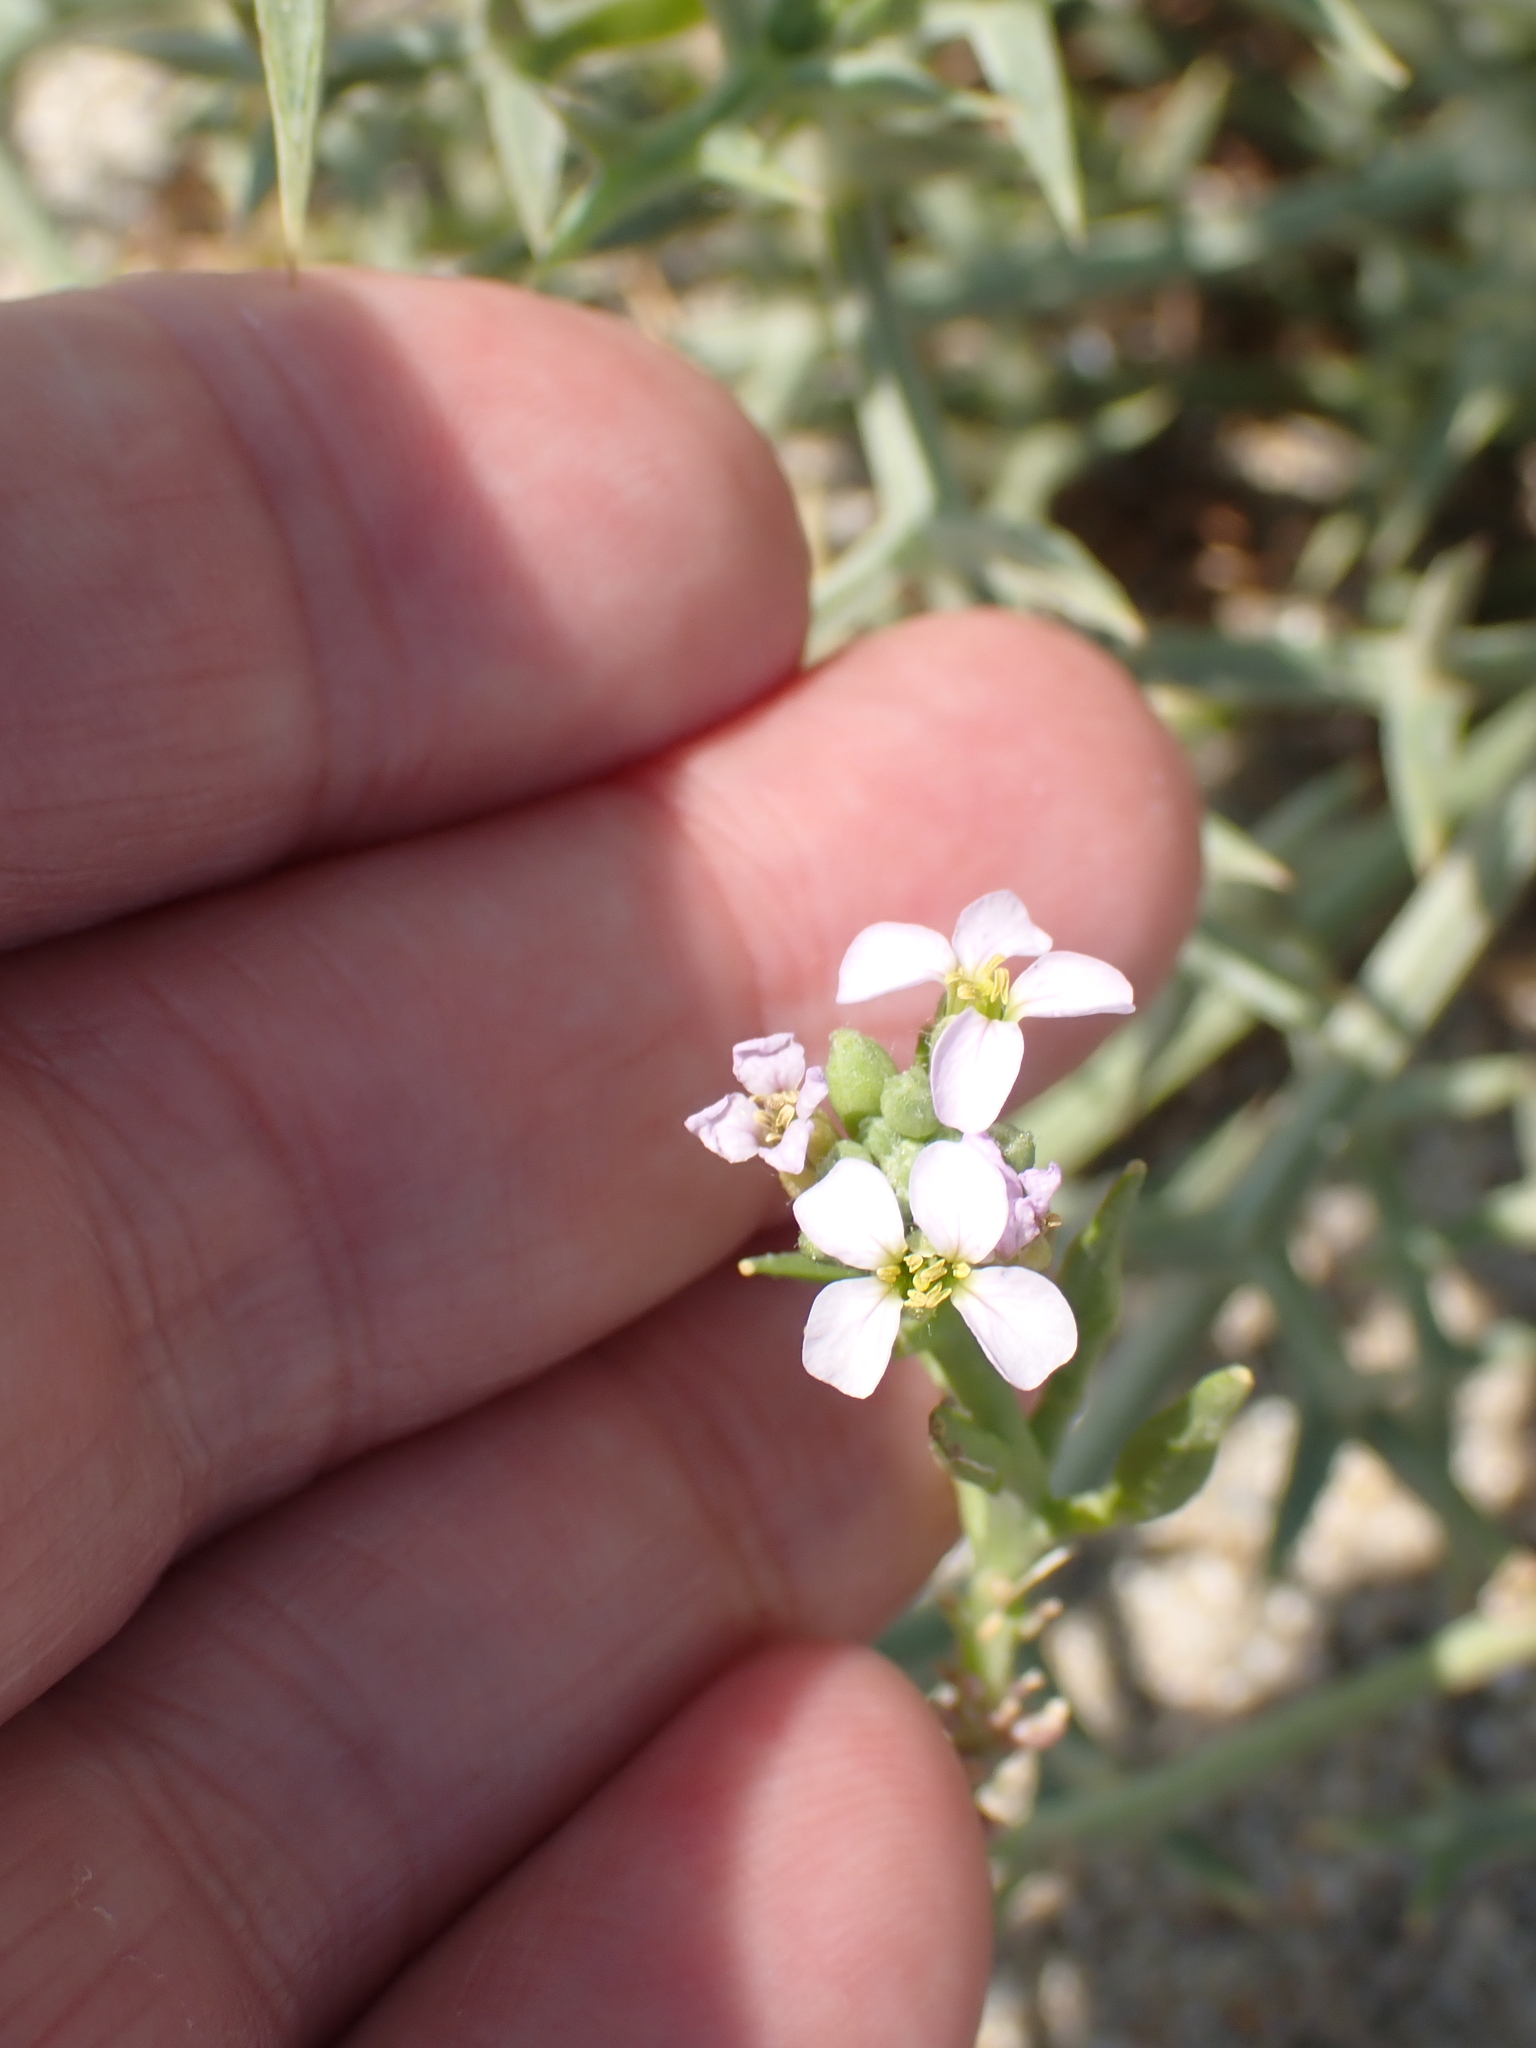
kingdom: Plantae
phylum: Tracheophyta
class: Magnoliopsida
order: Brassicales
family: Brassicaceae
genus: Cakile
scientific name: Cakile maritima
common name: Sea rocket
